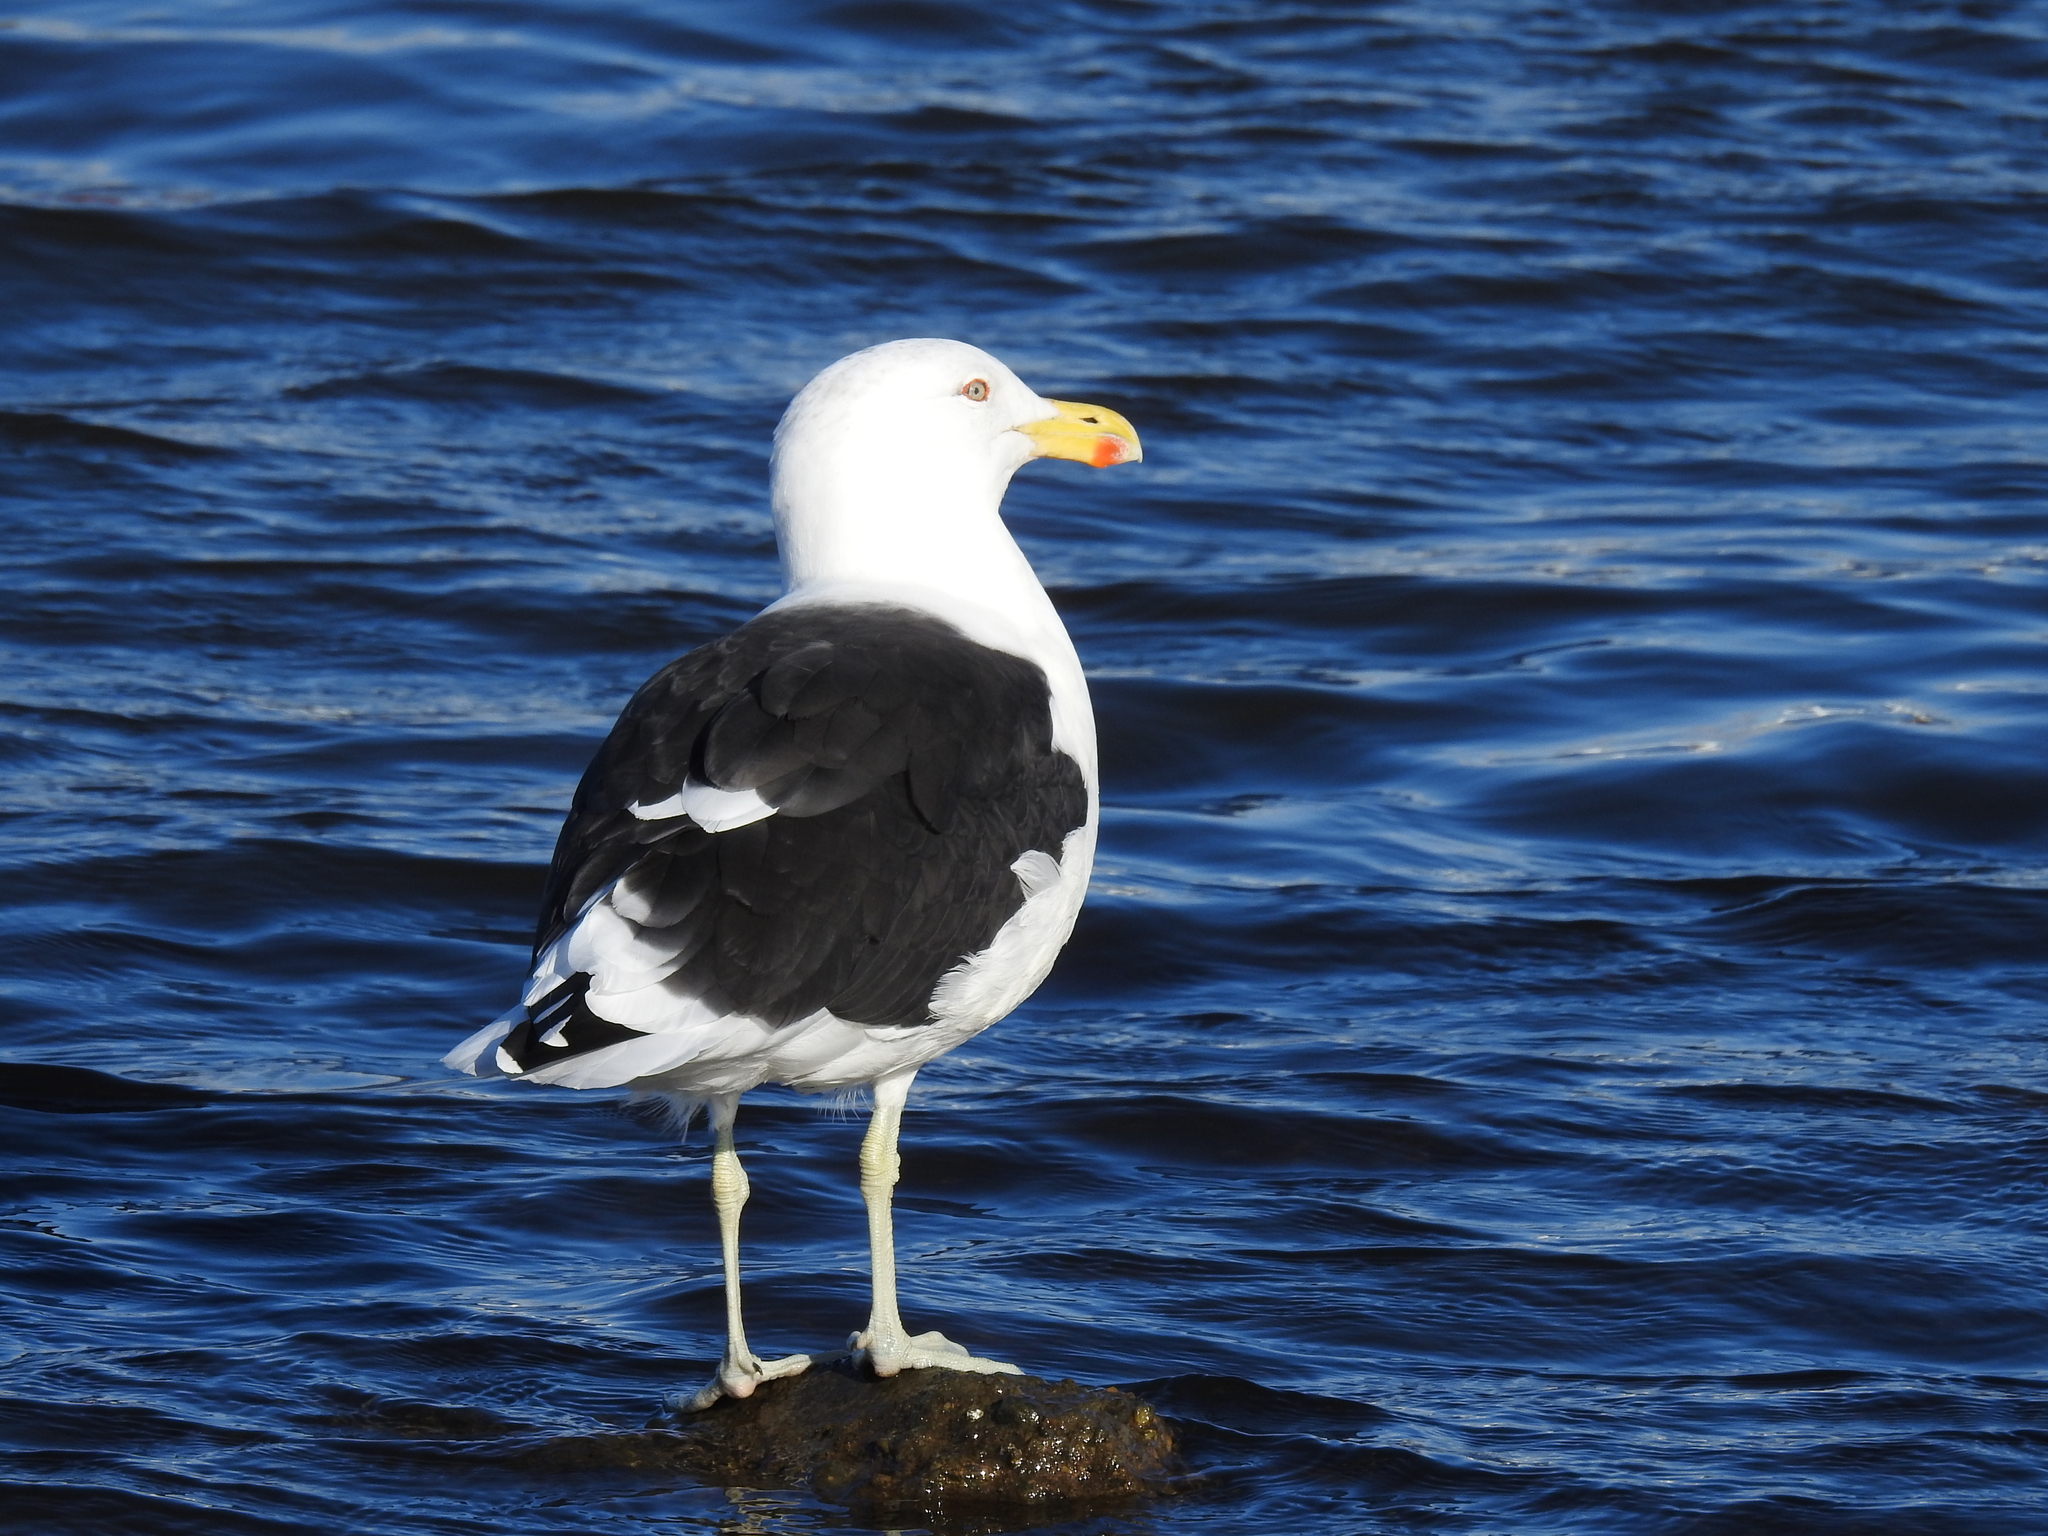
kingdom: Animalia
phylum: Chordata
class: Aves
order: Charadriiformes
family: Laridae
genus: Larus
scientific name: Larus dominicanus
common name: Kelp gull
